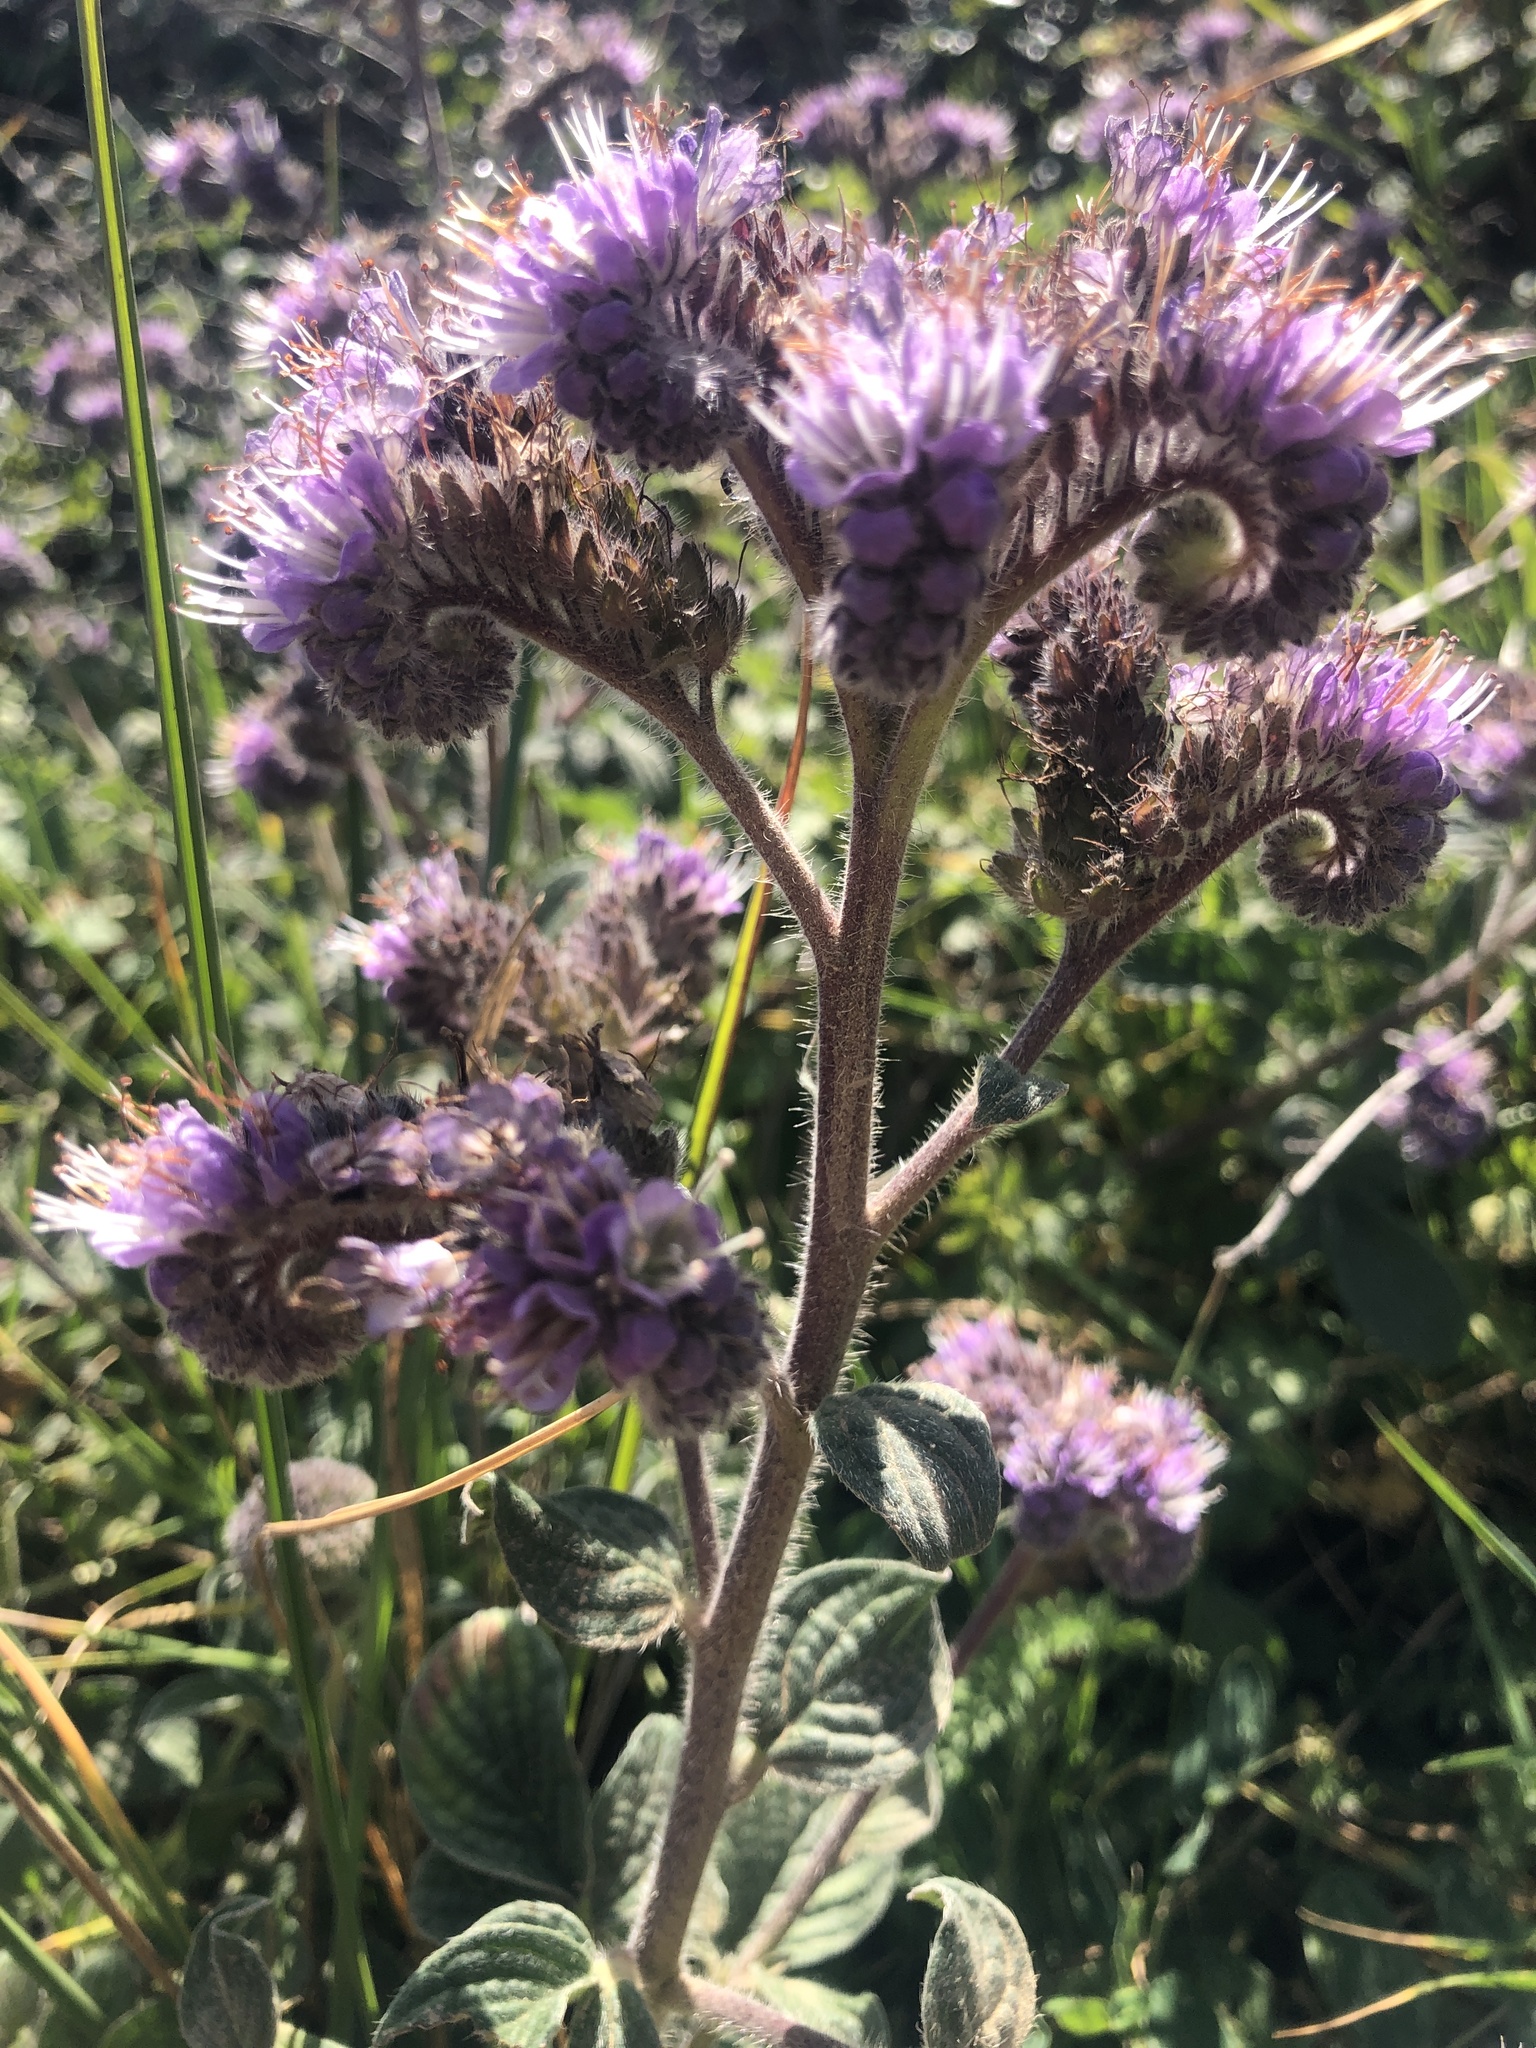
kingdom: Plantae
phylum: Tracheophyta
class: Magnoliopsida
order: Boraginales
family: Hydrophyllaceae
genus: Phacelia
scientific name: Phacelia californica
